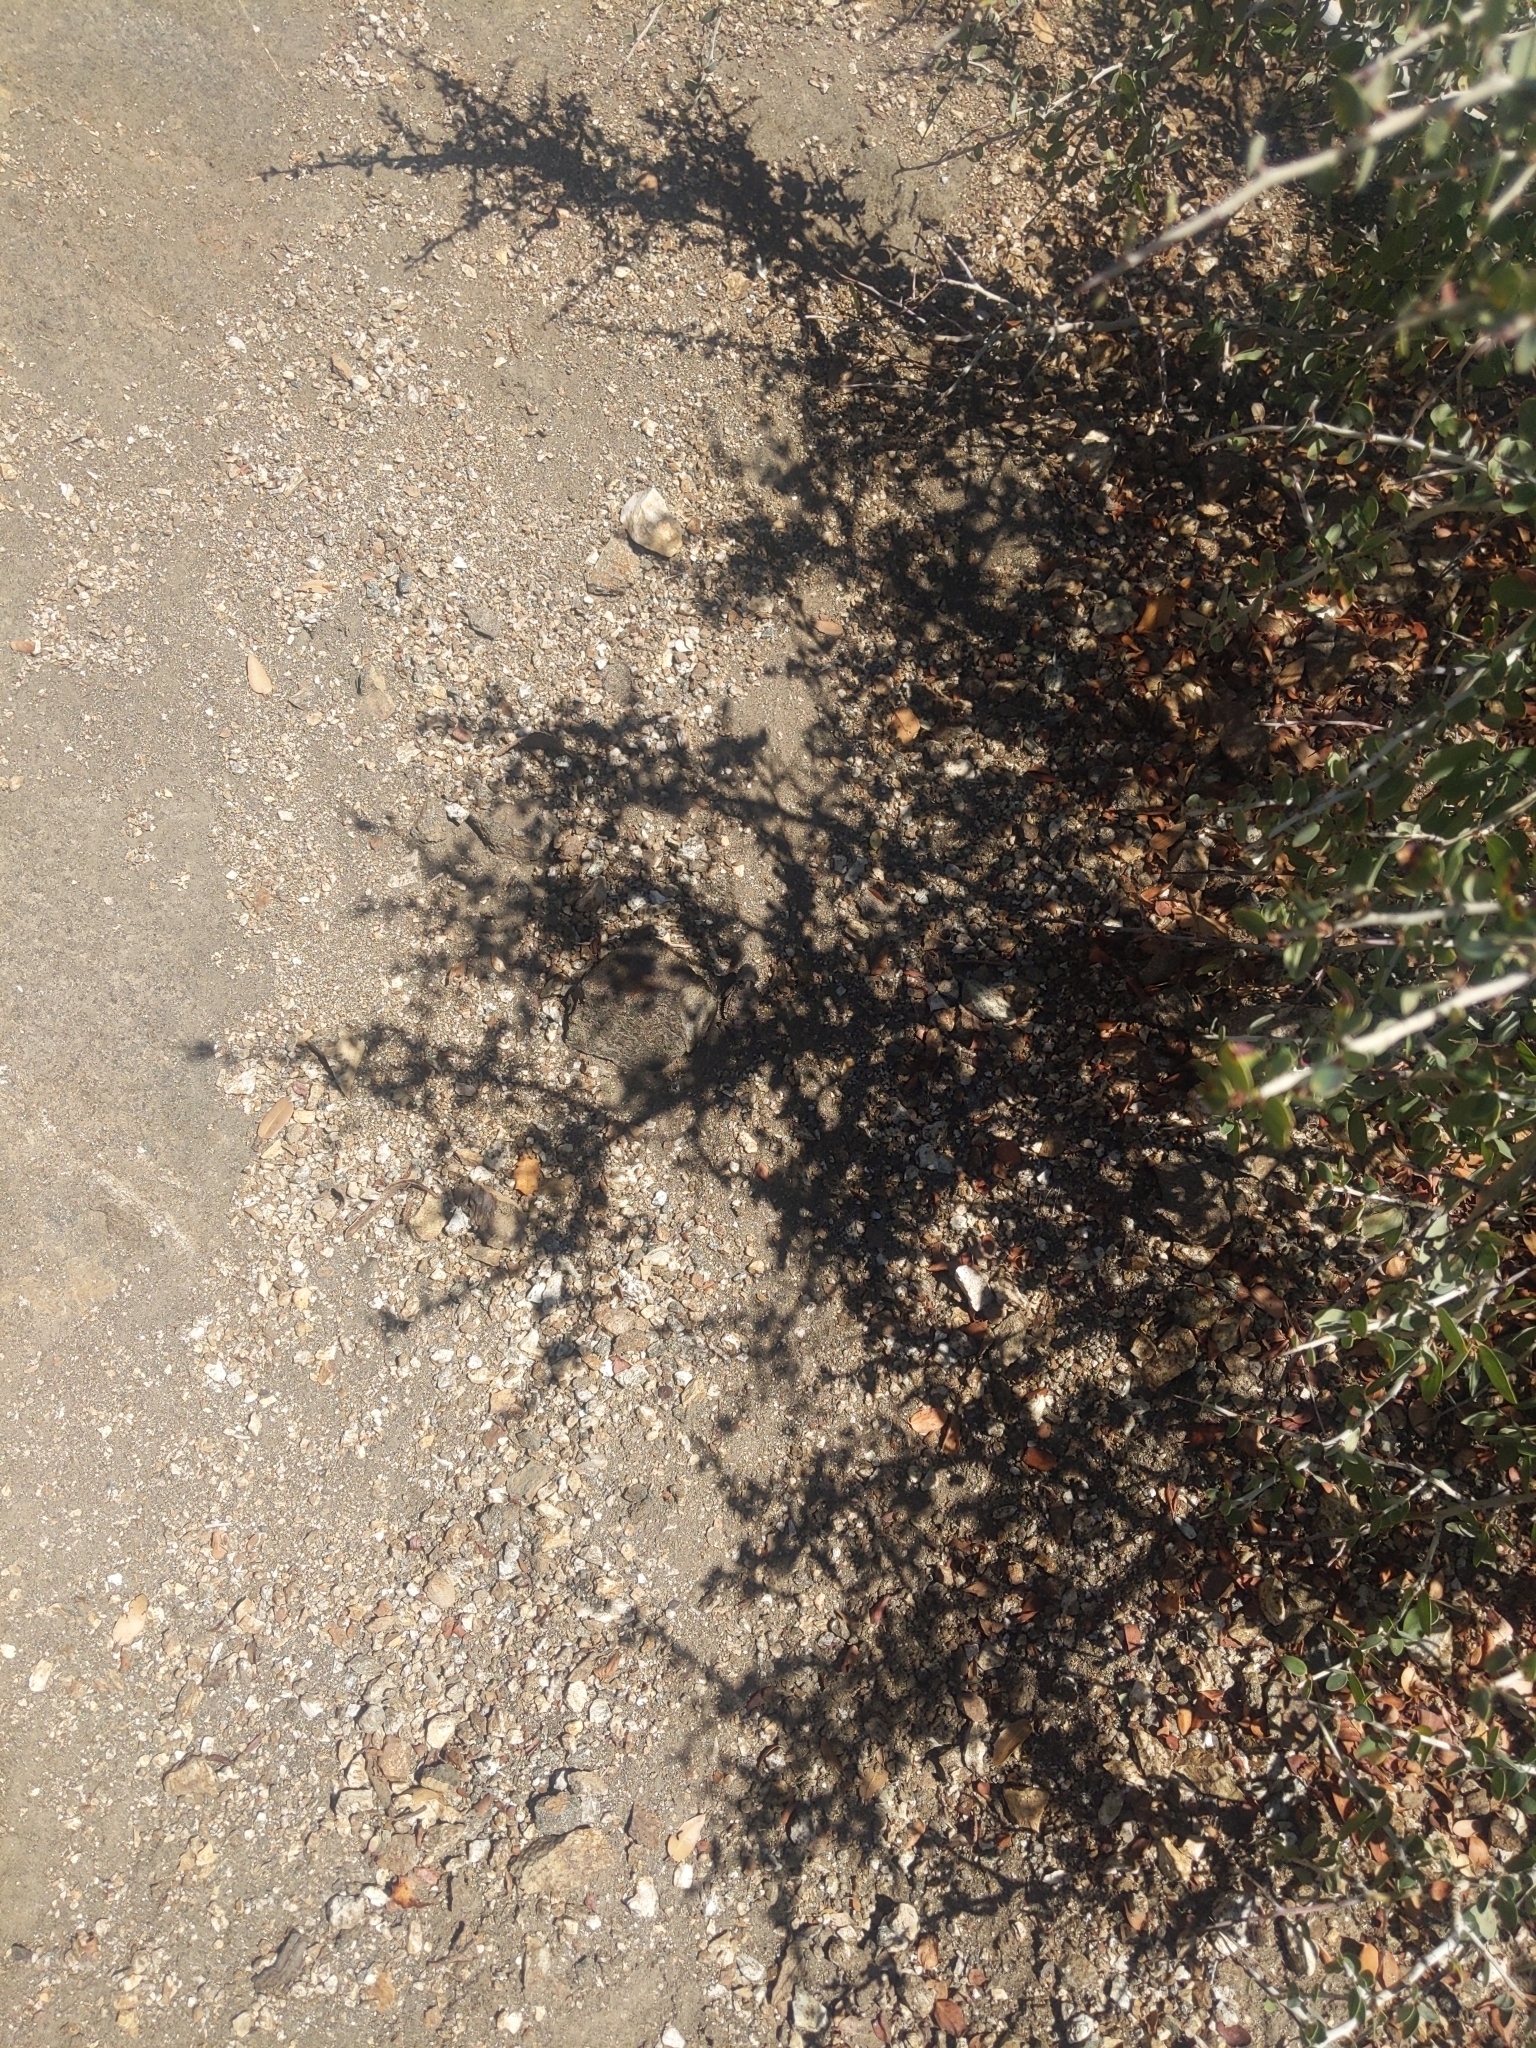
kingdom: Animalia
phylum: Chordata
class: Squamata
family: Phrynosomatidae
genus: Phrynosoma
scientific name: Phrynosoma blainvillii
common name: San diego horned lizard
